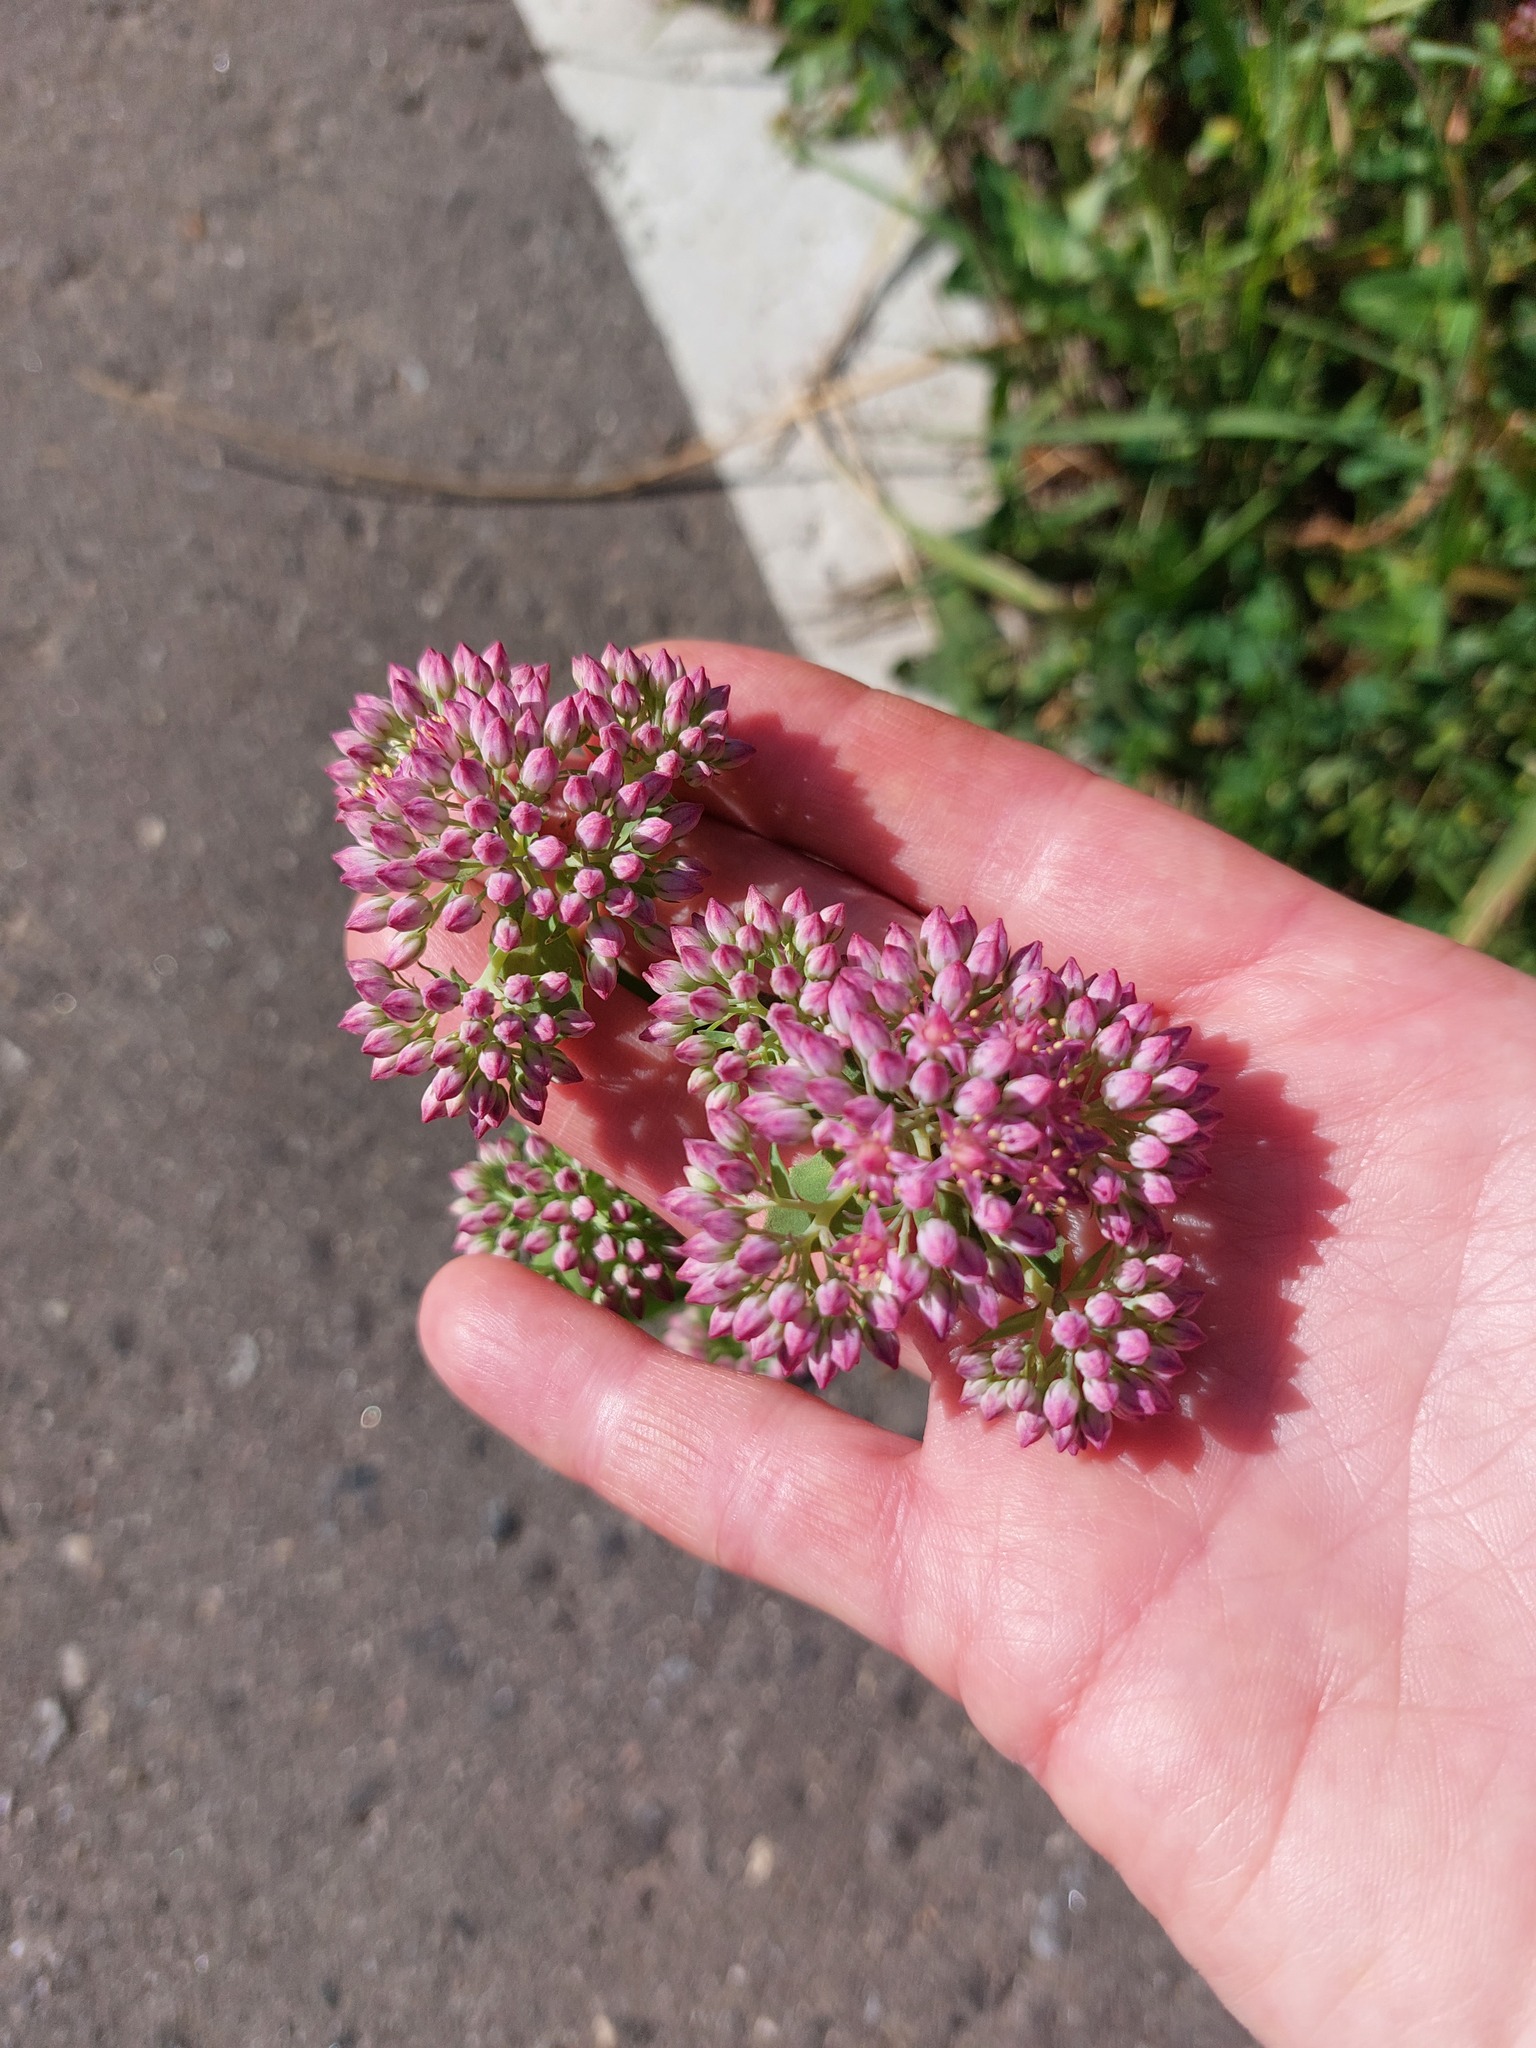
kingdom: Plantae
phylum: Tracheophyta
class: Magnoliopsida
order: Saxifragales
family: Crassulaceae
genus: Hylotelephium
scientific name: Hylotelephium telephium
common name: Live-forever
